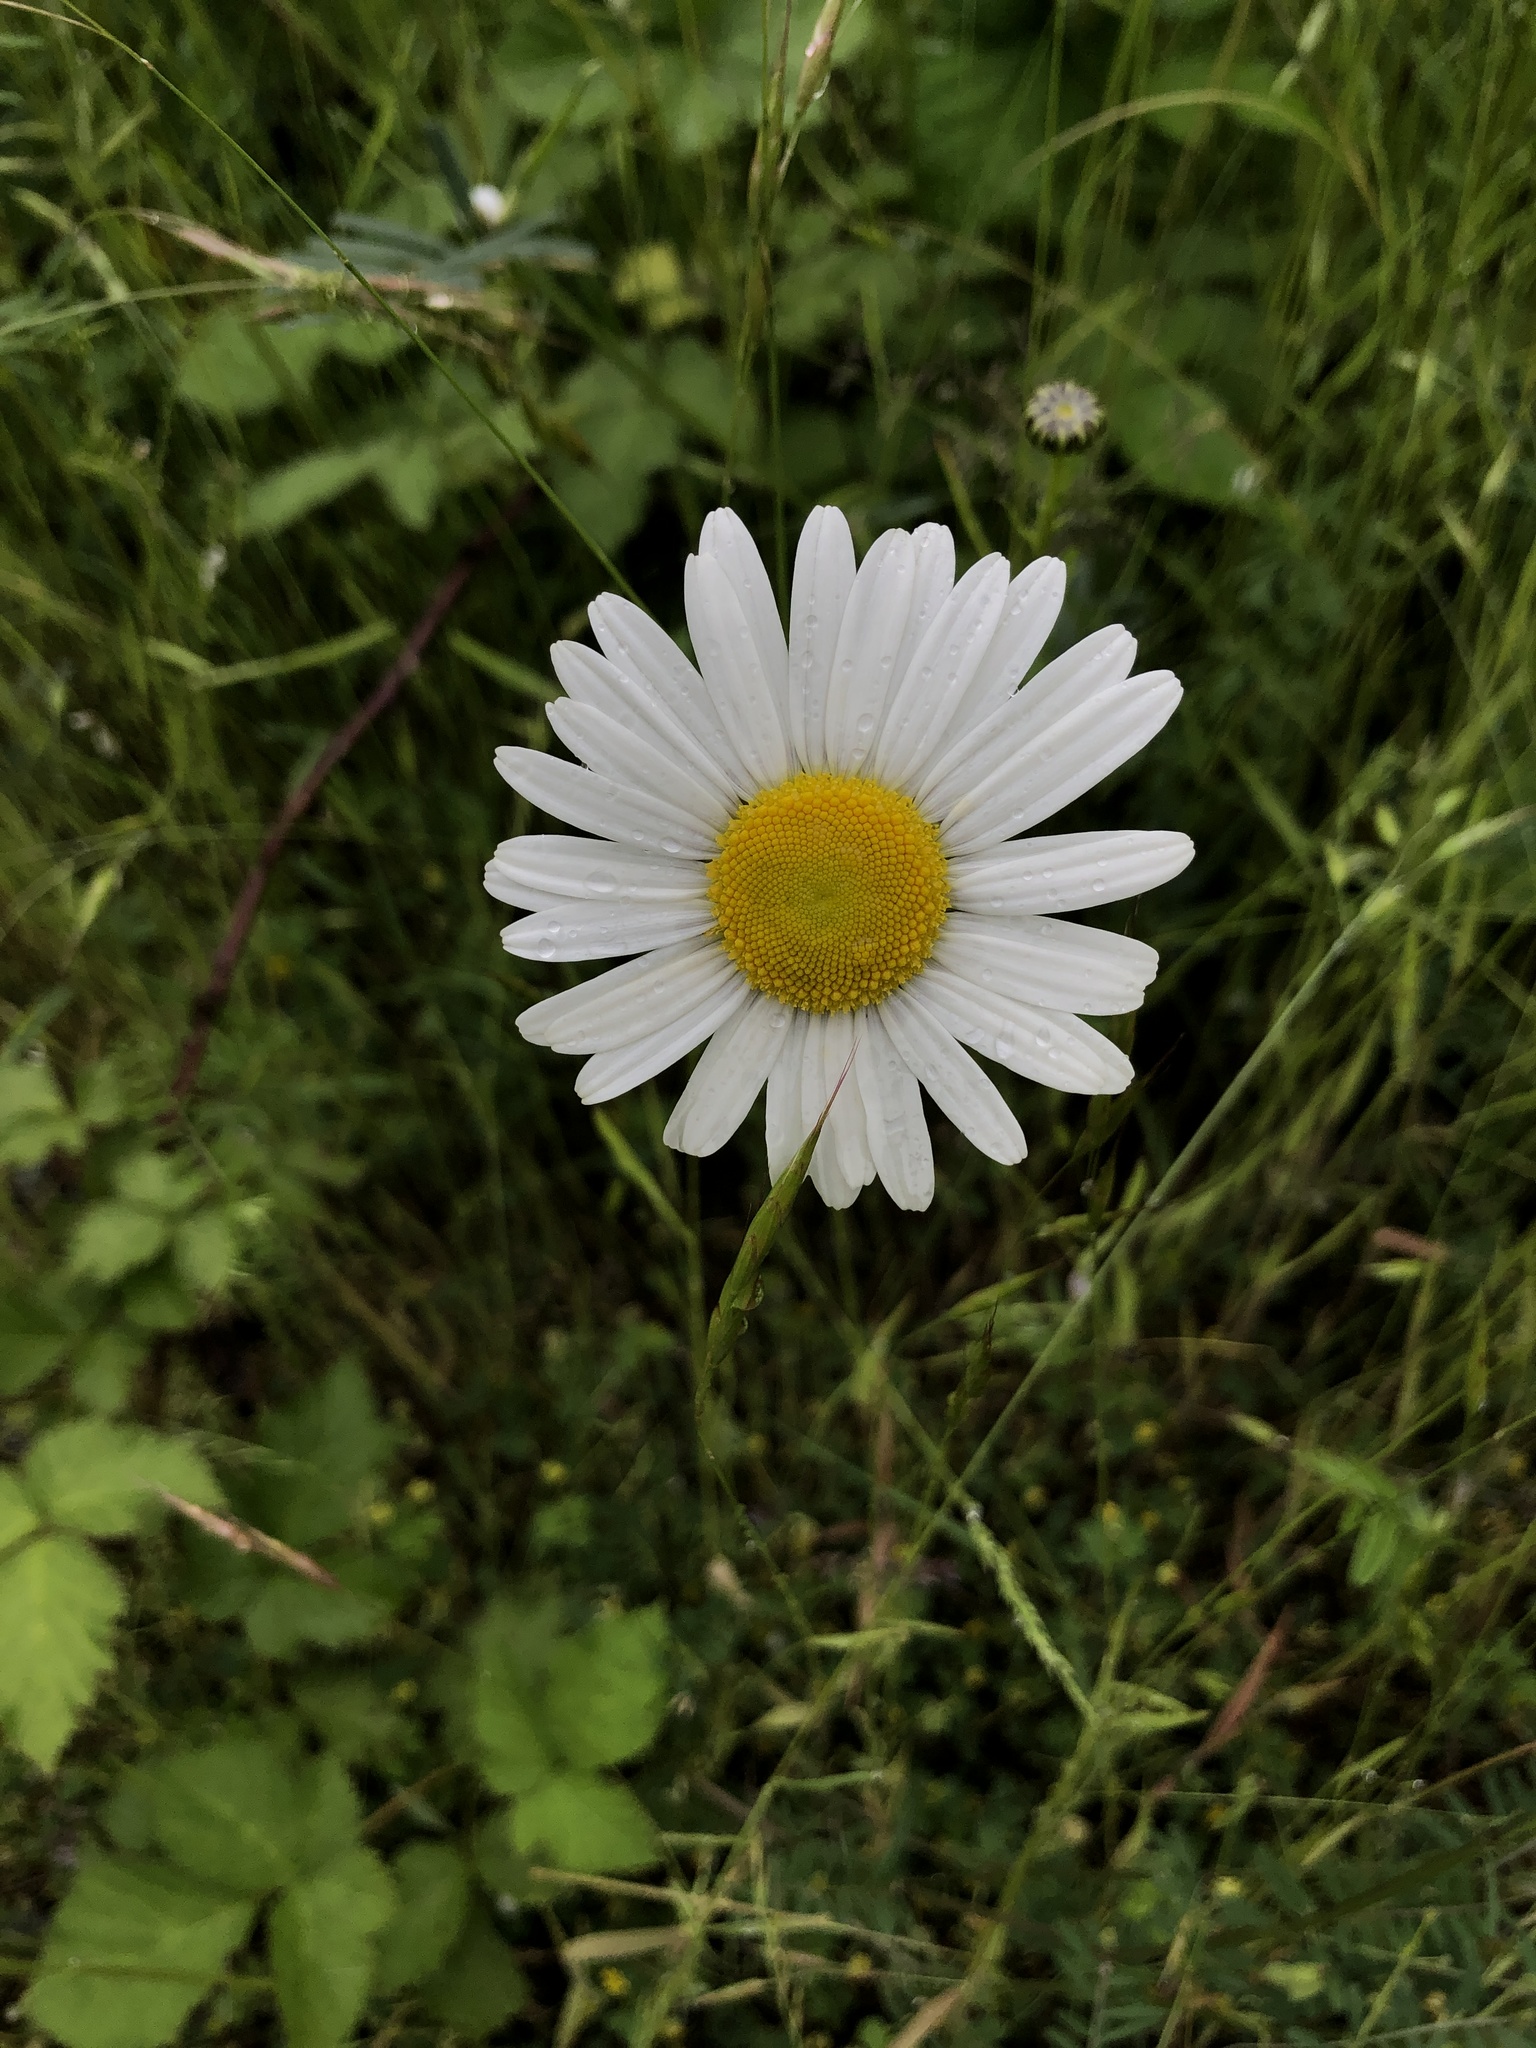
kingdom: Plantae
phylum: Tracheophyta
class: Magnoliopsida
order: Asterales
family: Asteraceae
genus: Leucanthemum
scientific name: Leucanthemum vulgare
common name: Oxeye daisy
